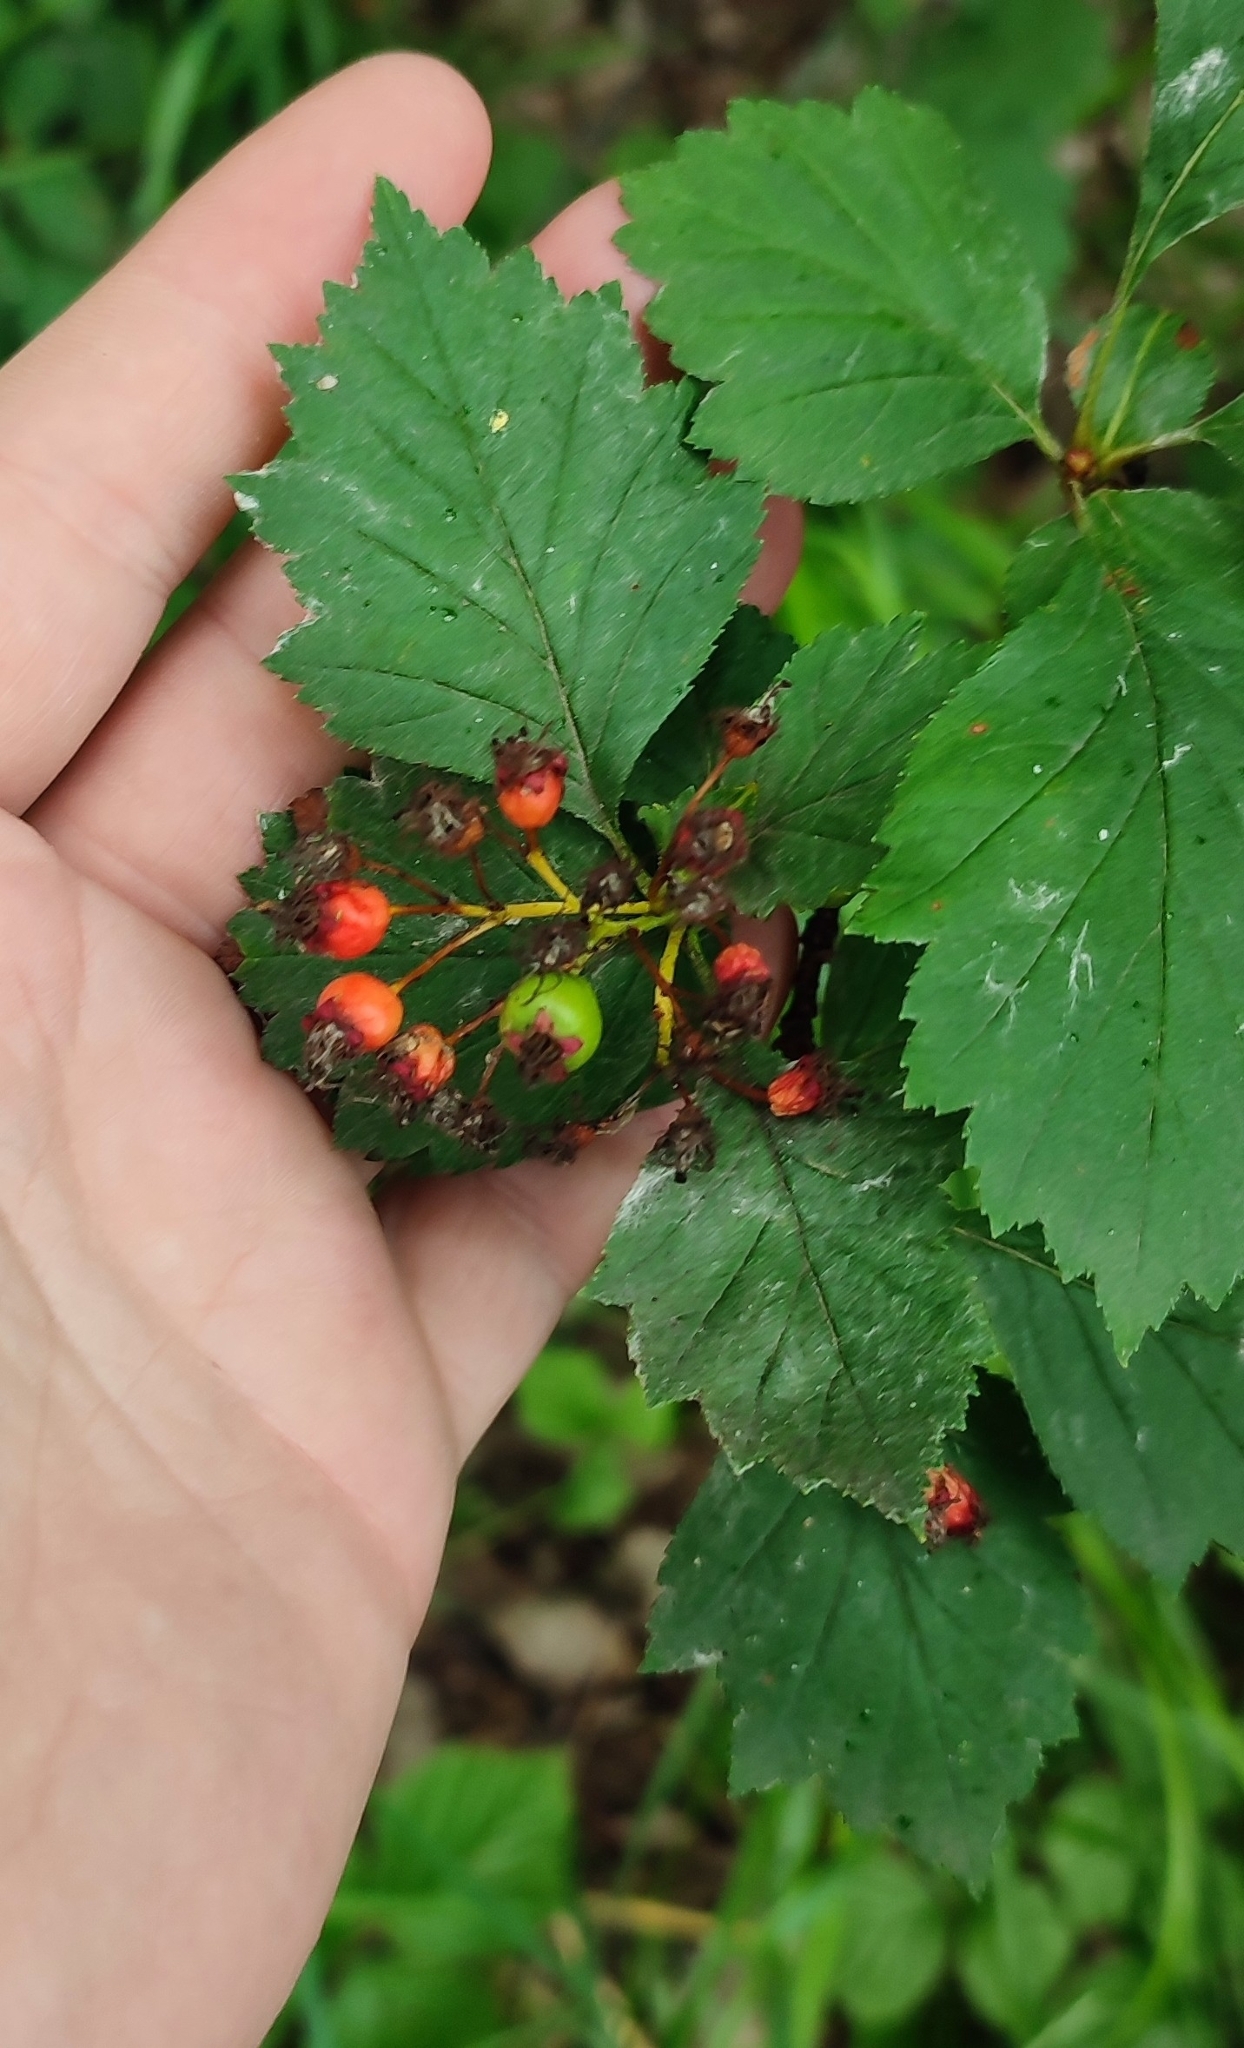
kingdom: Plantae
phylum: Tracheophyta
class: Magnoliopsida
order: Rosales
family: Rosaceae
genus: Crataegus
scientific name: Crataegus sanguinea
